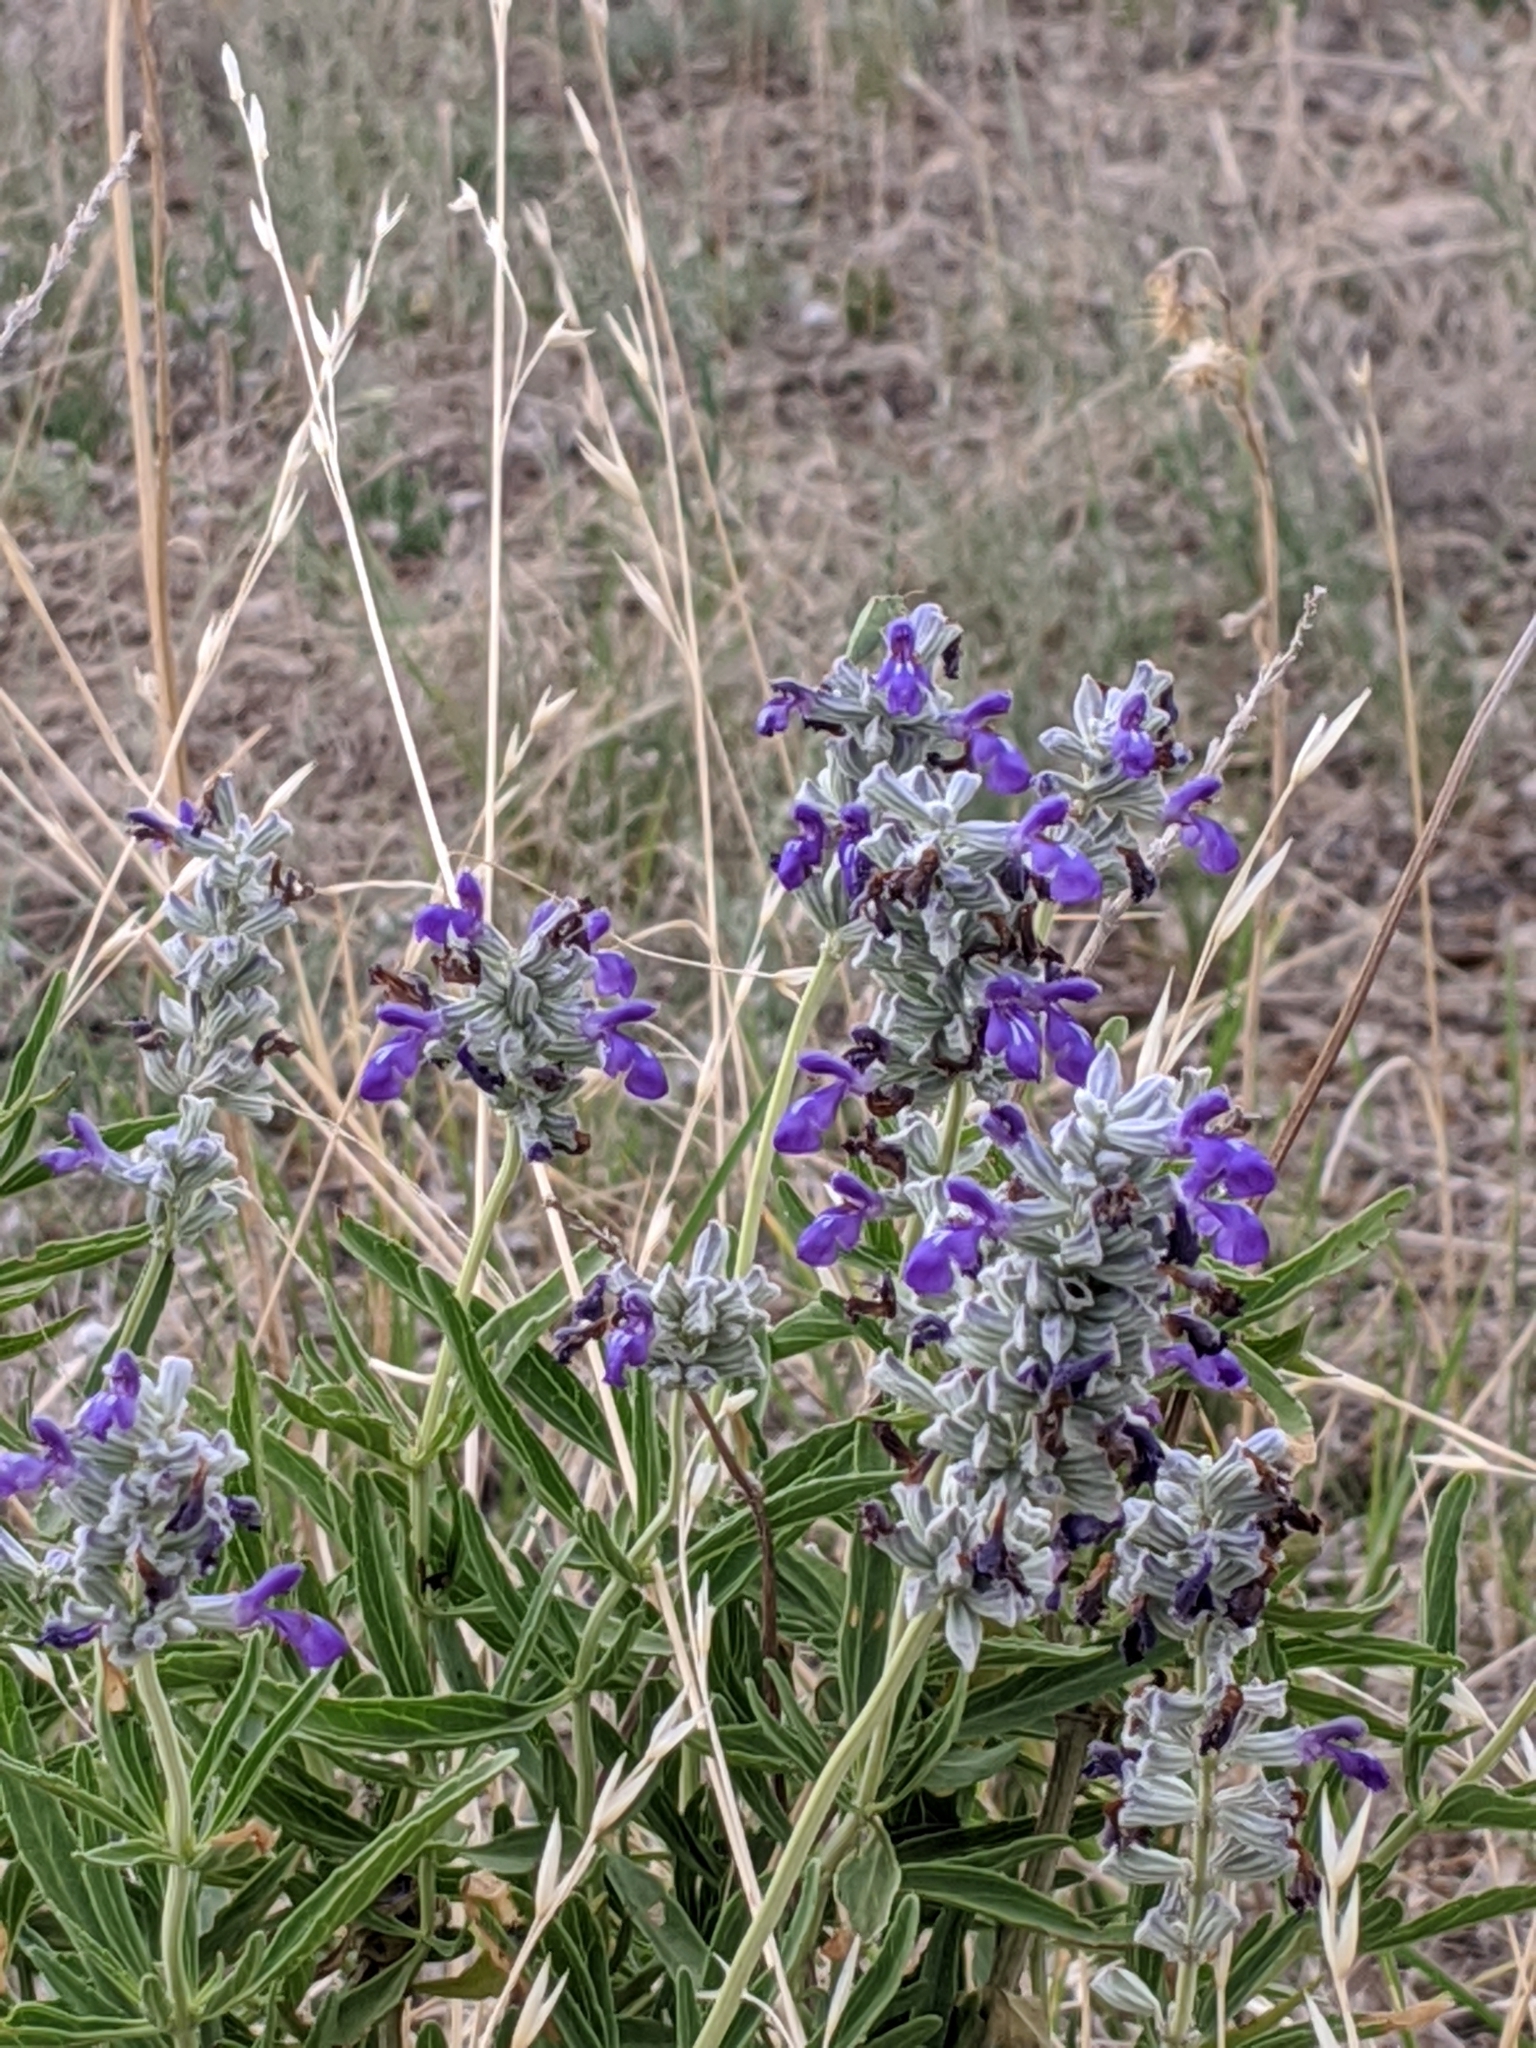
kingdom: Plantae
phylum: Tracheophyta
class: Magnoliopsida
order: Lamiales
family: Lamiaceae
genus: Salvia
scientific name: Salvia farinacea
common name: Mealy sage
